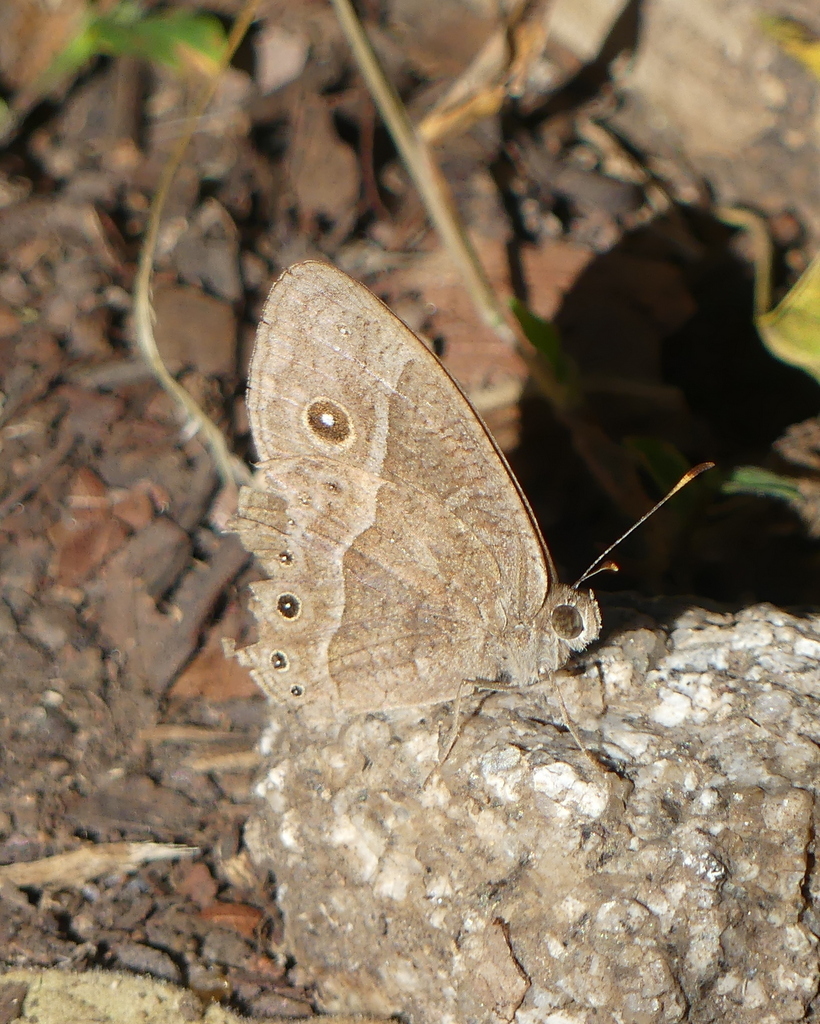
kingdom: Animalia
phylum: Arthropoda
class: Insecta
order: Lepidoptera
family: Nymphalidae
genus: Mycalesis
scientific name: Mycalesis anynana
